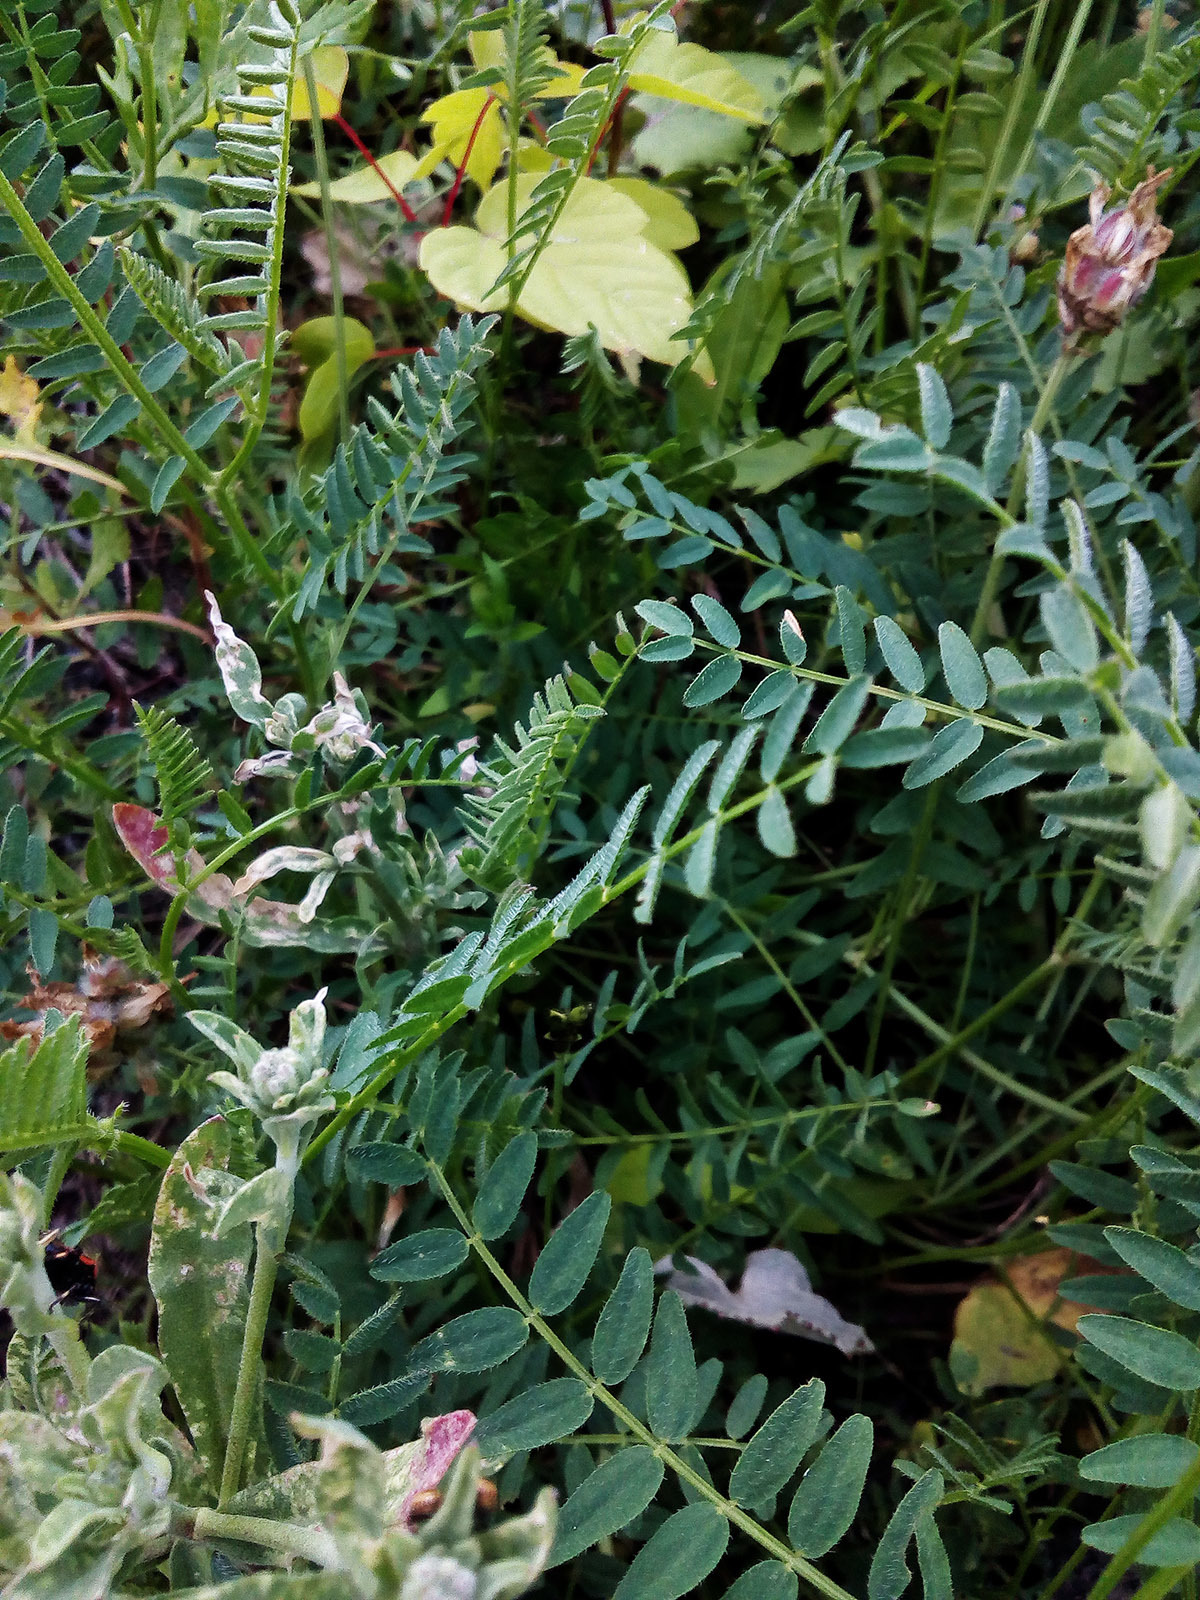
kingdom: Plantae
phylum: Tracheophyta
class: Magnoliopsida
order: Fabales
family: Fabaceae
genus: Astragalus
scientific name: Astragalus danicus
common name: Purple milk-vetch
